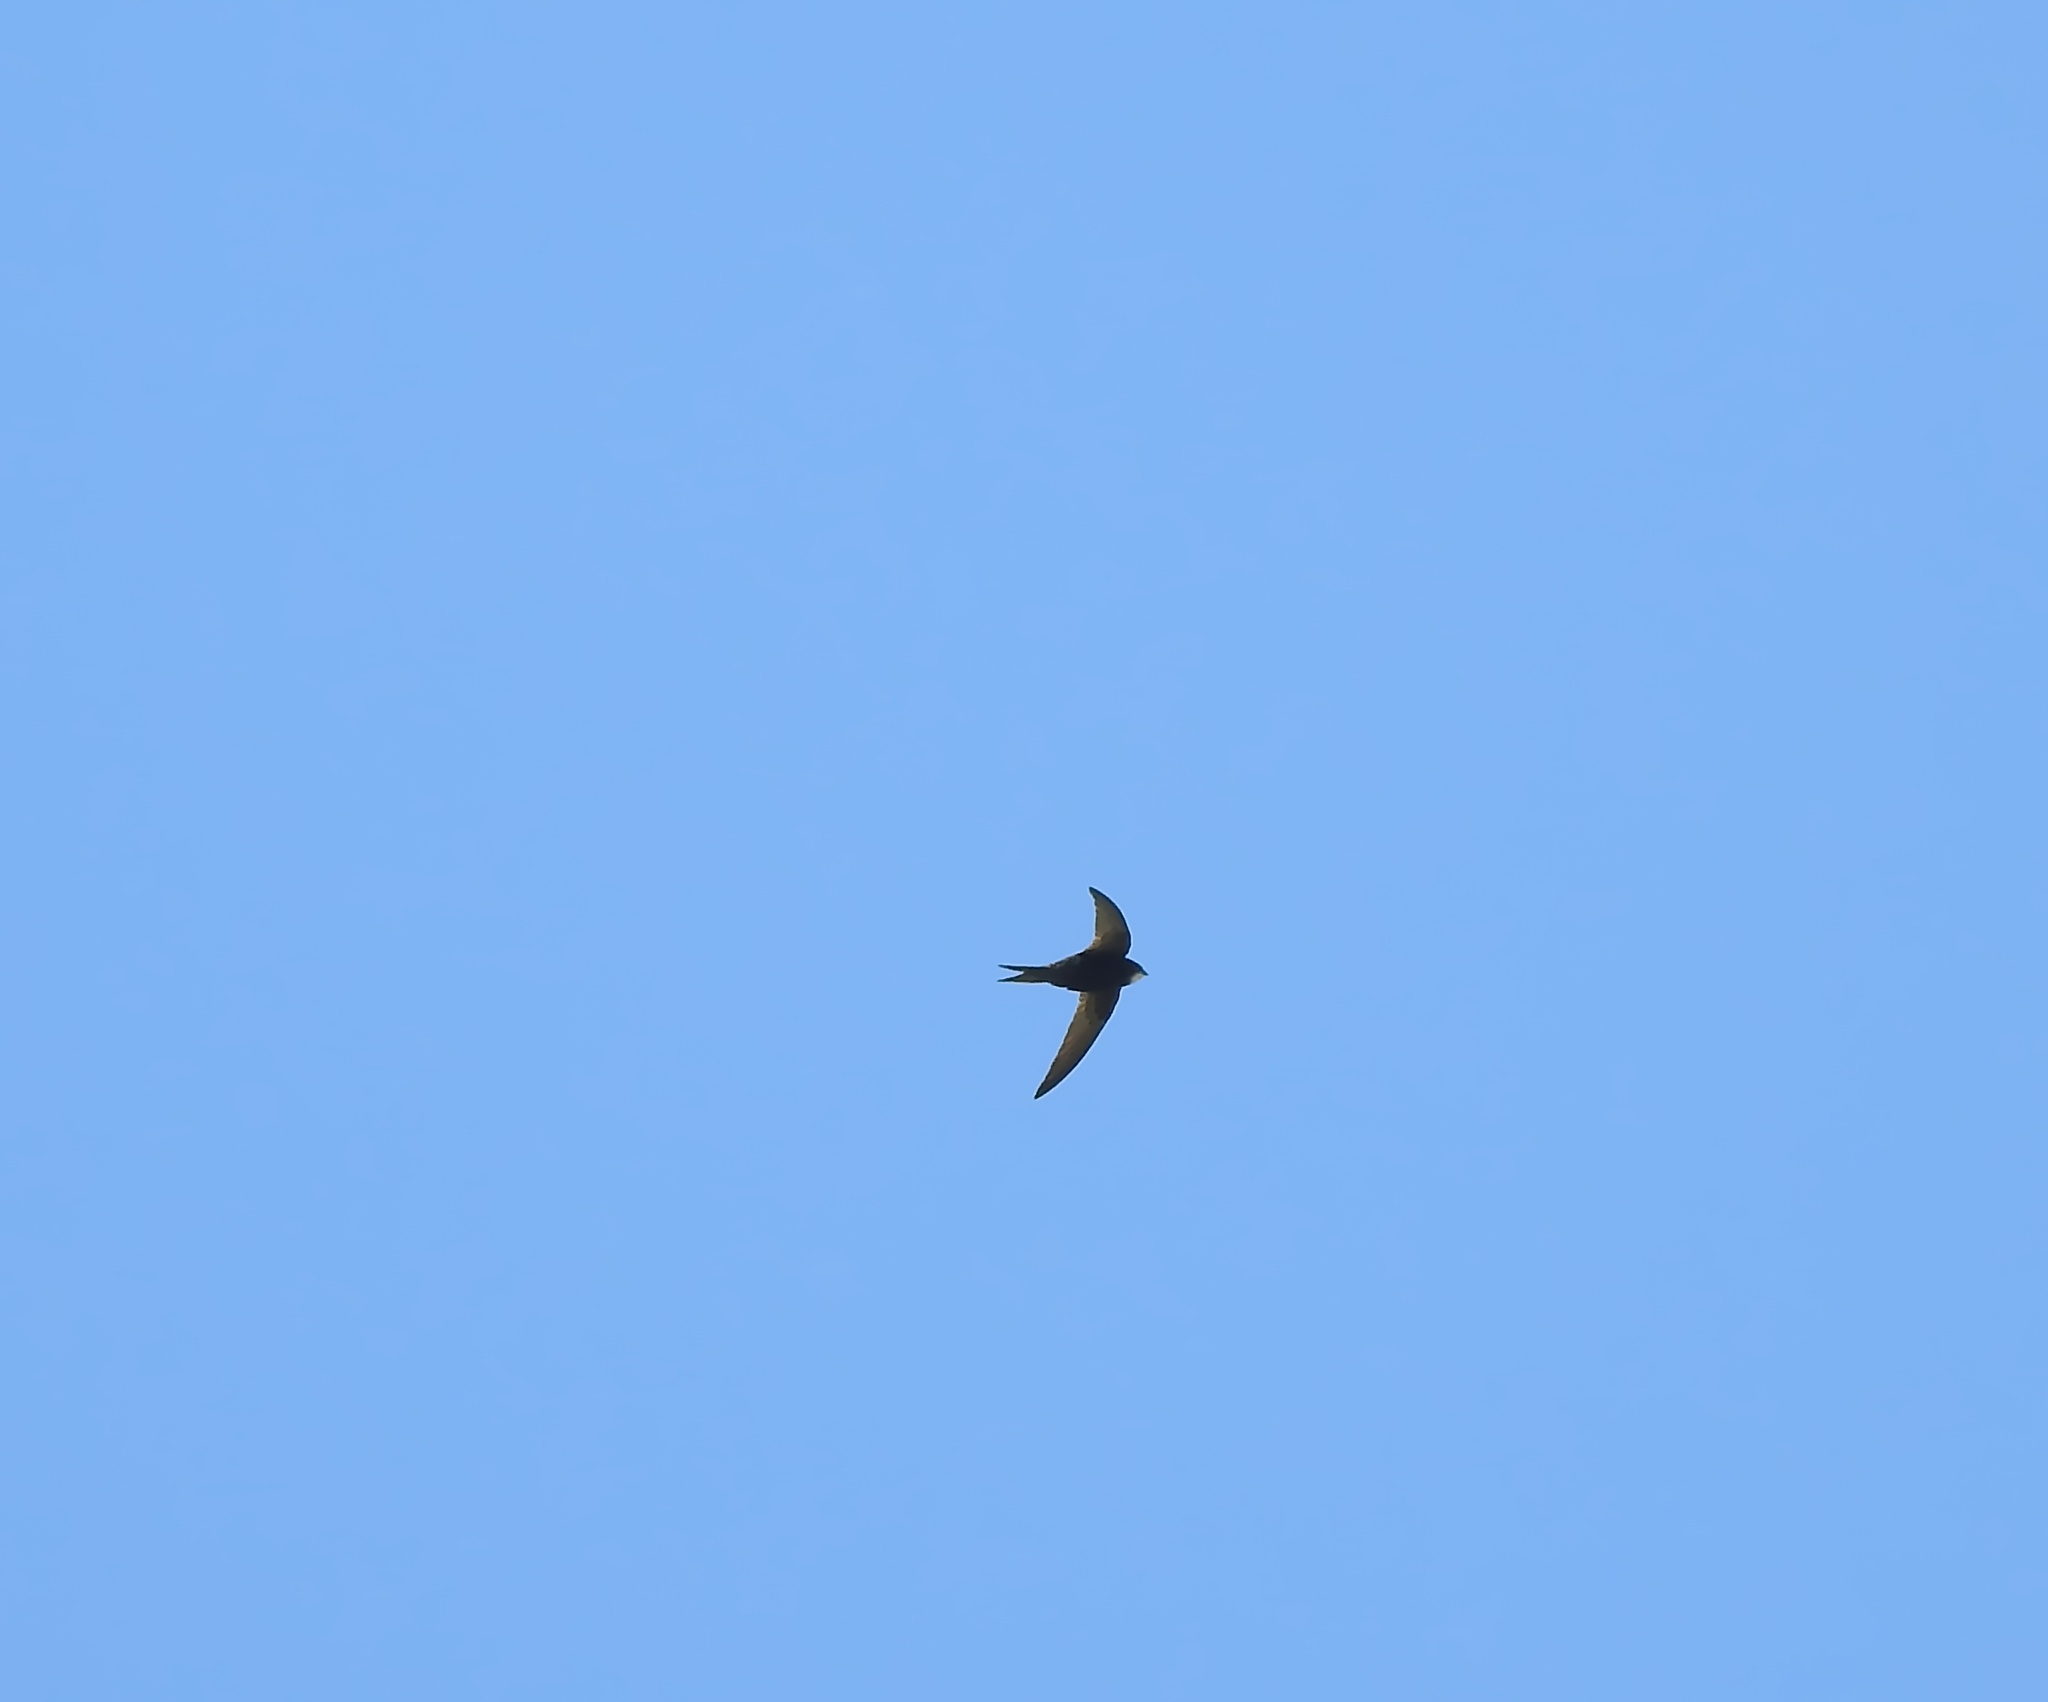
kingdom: Animalia
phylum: Chordata
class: Aves
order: Apodiformes
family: Apodidae
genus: Apus
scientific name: Apus apus
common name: Common swift
